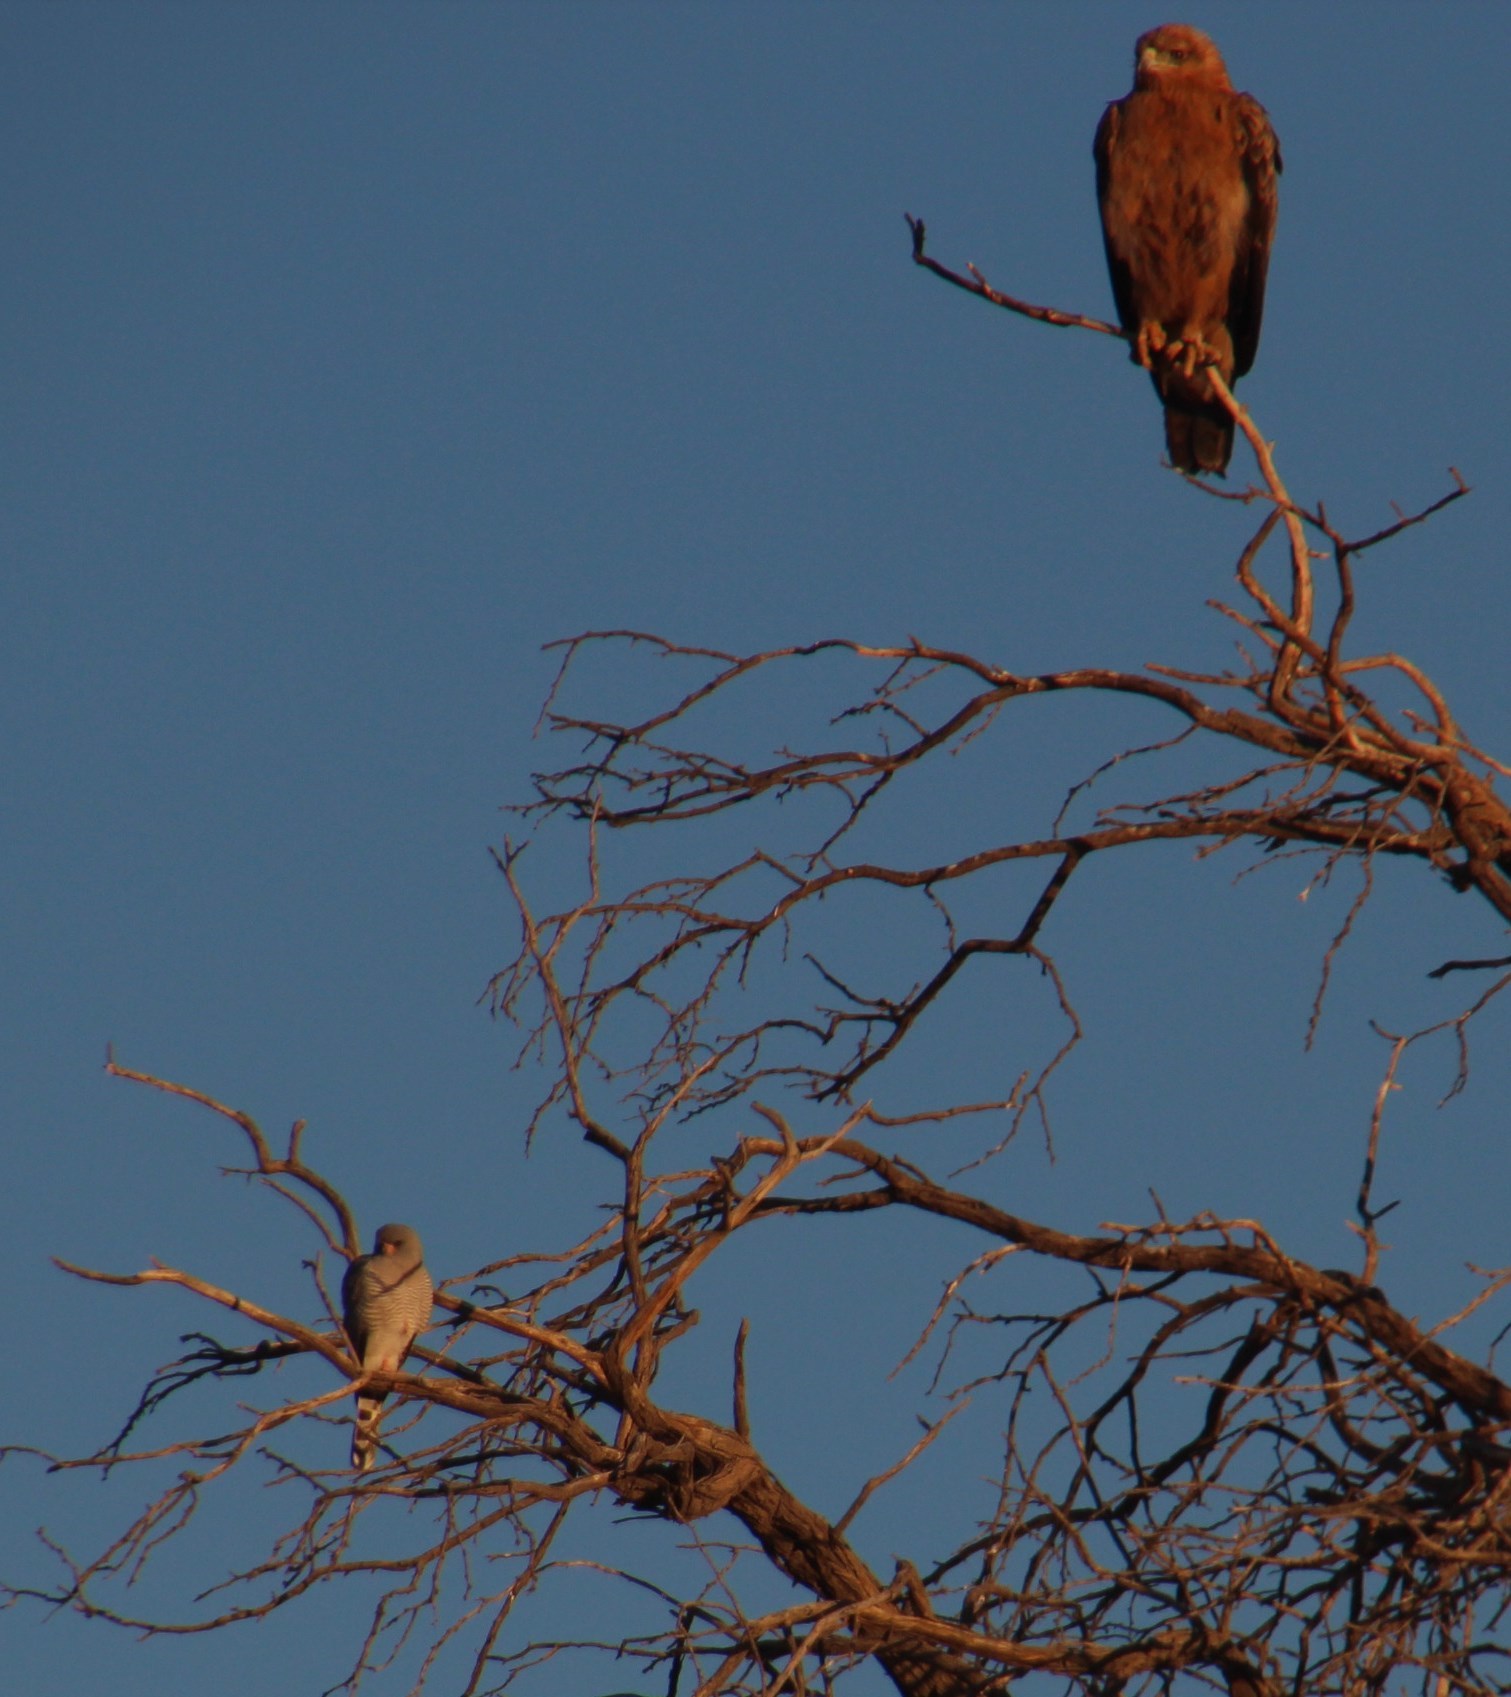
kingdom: Animalia
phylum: Chordata
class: Aves
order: Accipitriformes
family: Accipitridae
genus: Micronisus
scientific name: Micronisus gabar
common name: Gabar goshawk
